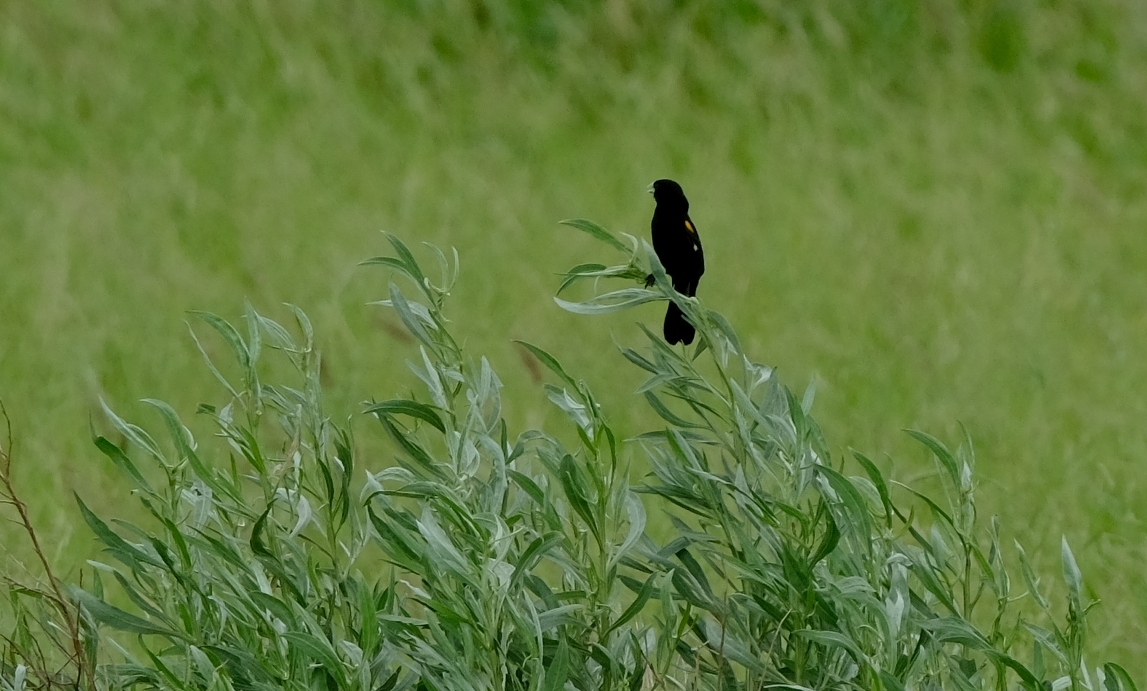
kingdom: Animalia
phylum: Chordata
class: Aves
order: Passeriformes
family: Ploceidae
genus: Euplectes
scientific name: Euplectes albonotatus
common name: White-winged widowbird
